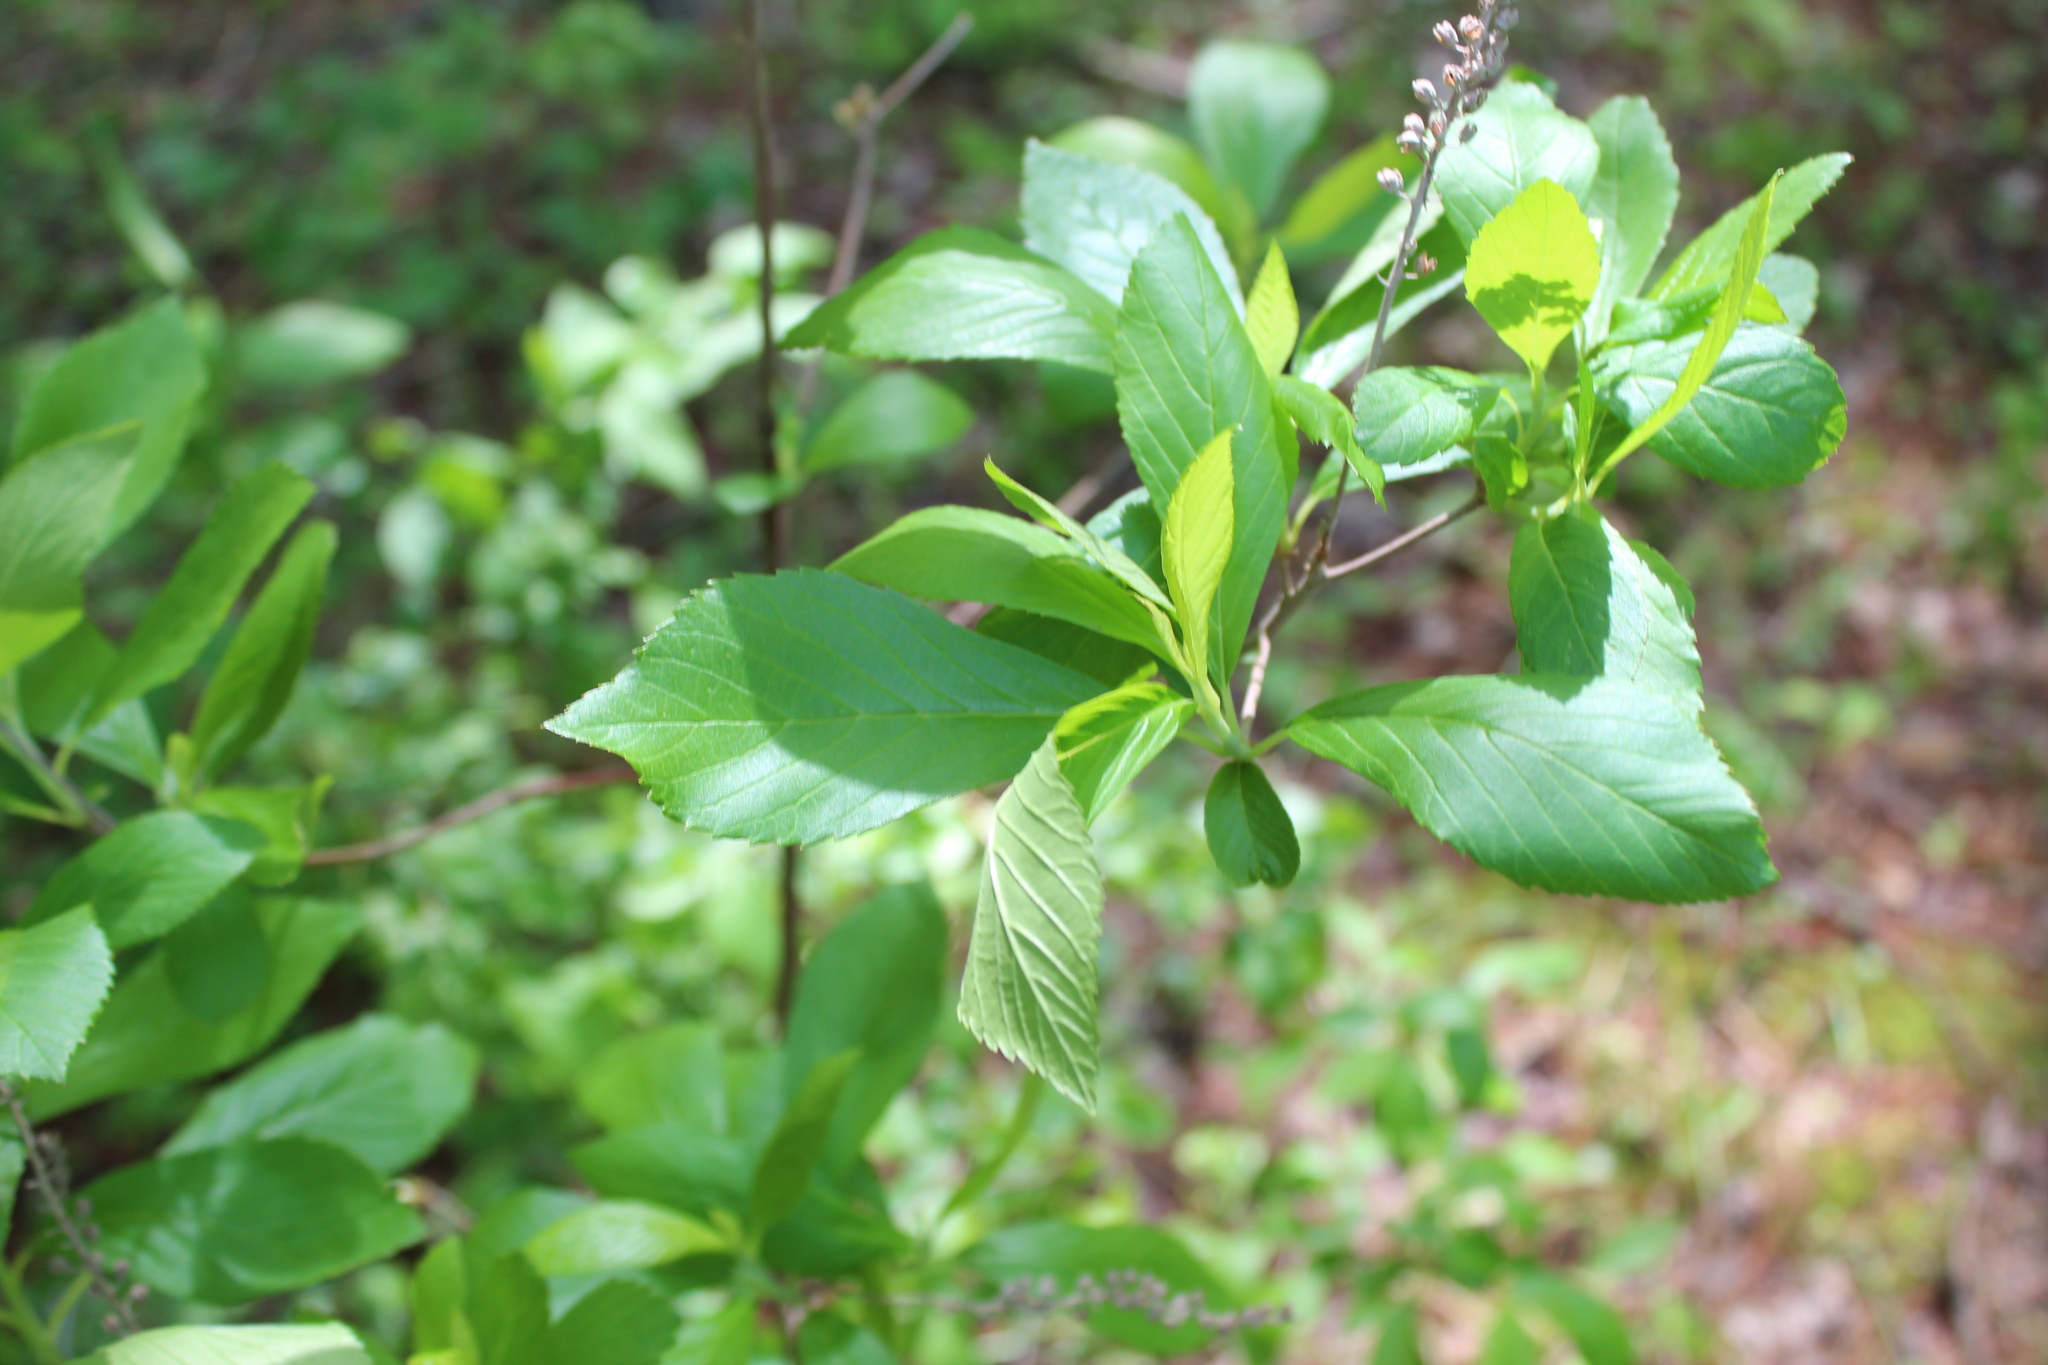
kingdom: Plantae
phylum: Tracheophyta
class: Magnoliopsida
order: Ericales
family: Clethraceae
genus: Clethra
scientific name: Clethra alnifolia
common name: Sweet pepperbush
